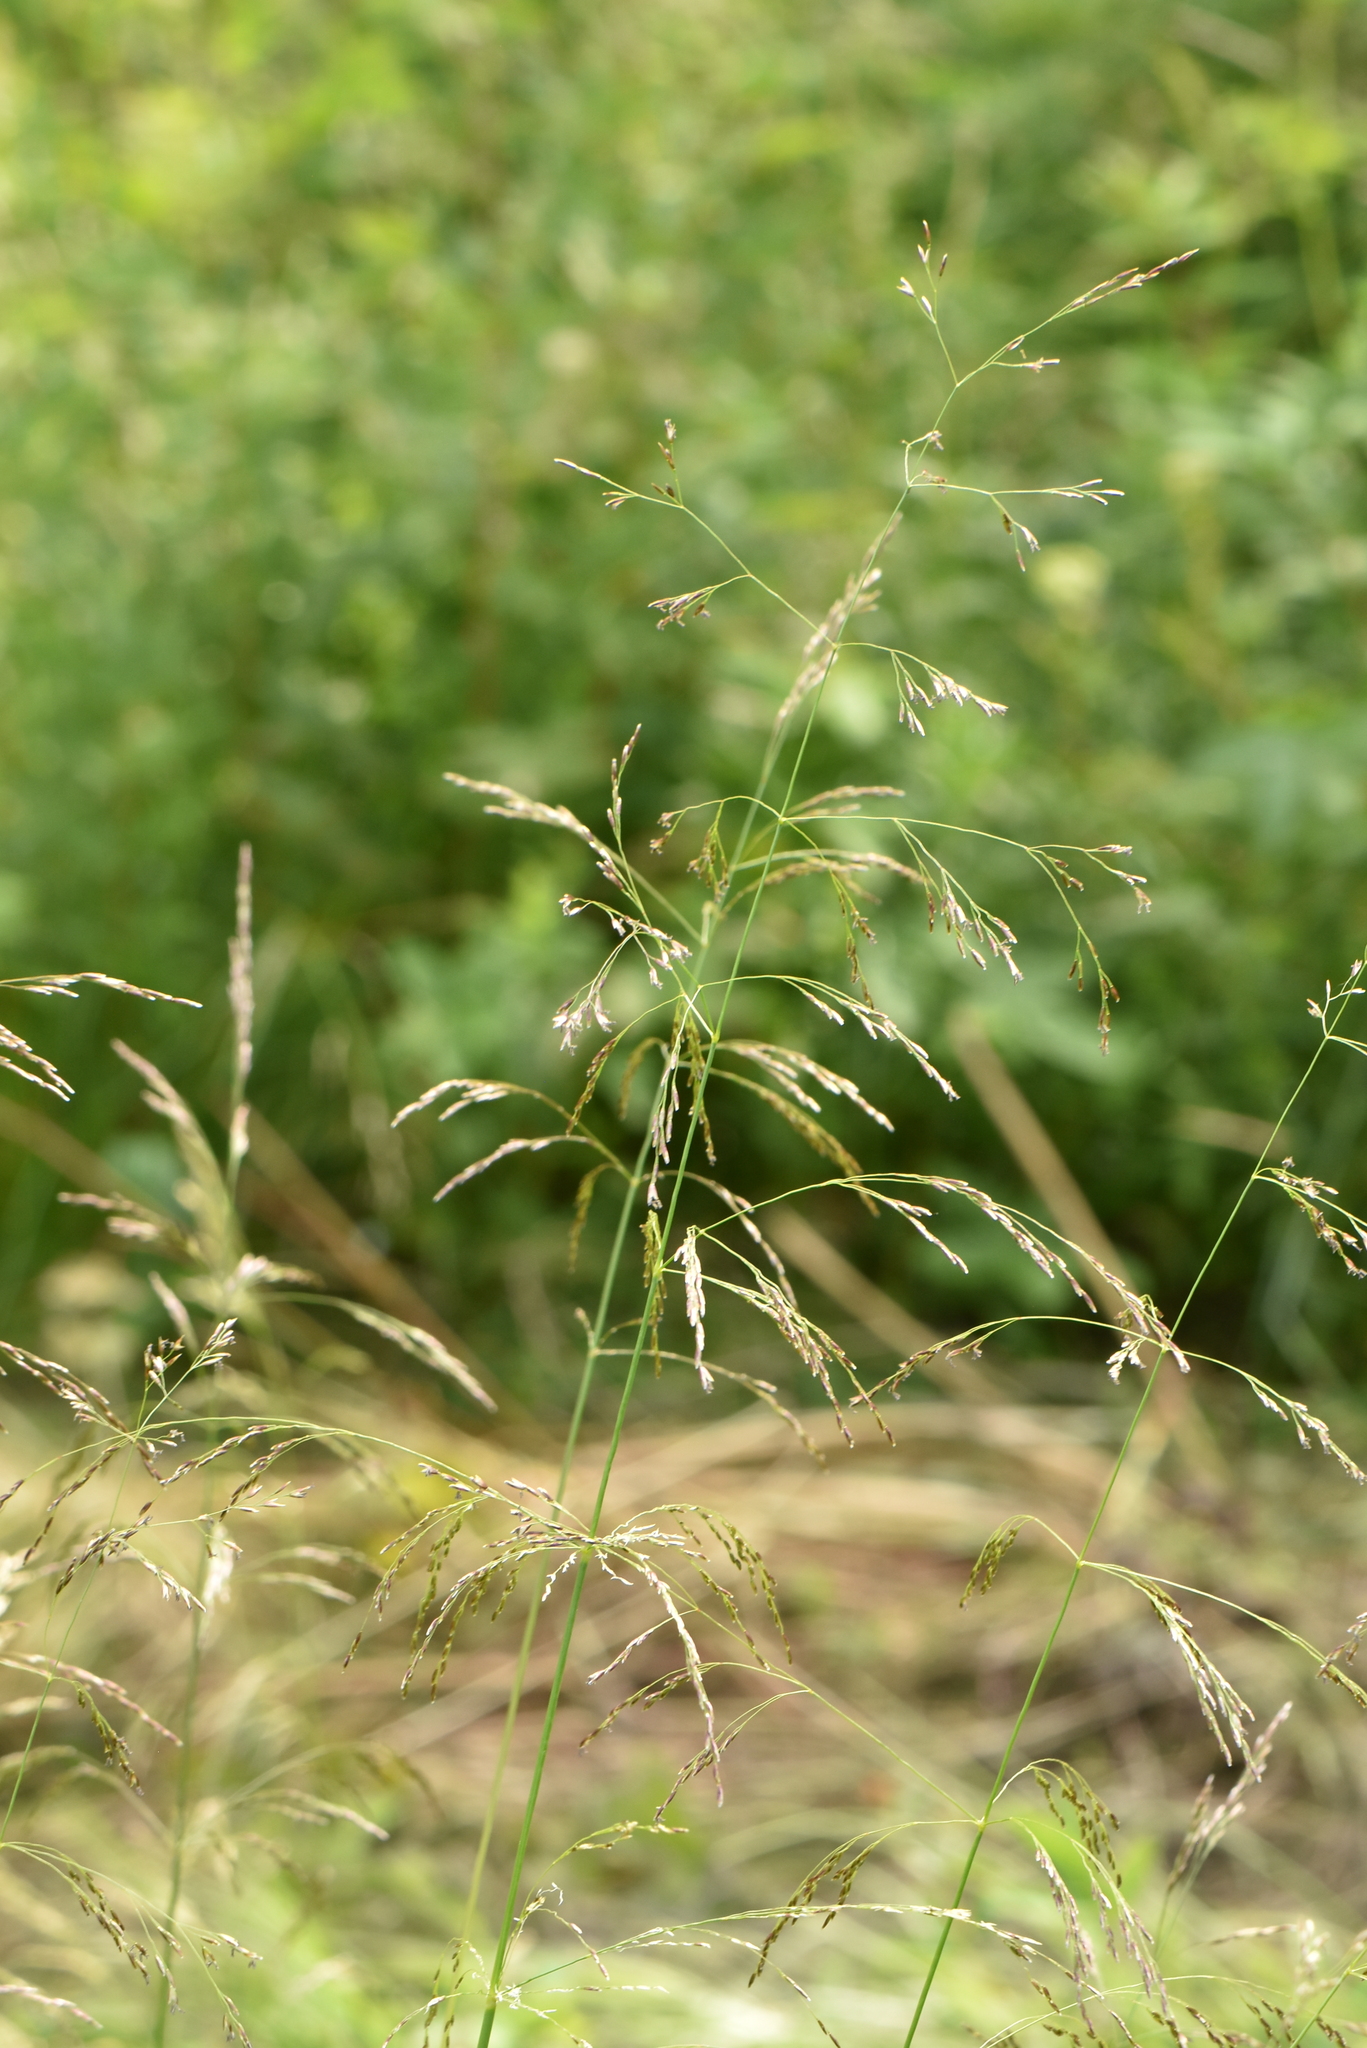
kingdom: Plantae
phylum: Tracheophyta
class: Liliopsida
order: Poales
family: Poaceae
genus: Deschampsia
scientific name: Deschampsia cespitosa
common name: Tufted hair-grass
